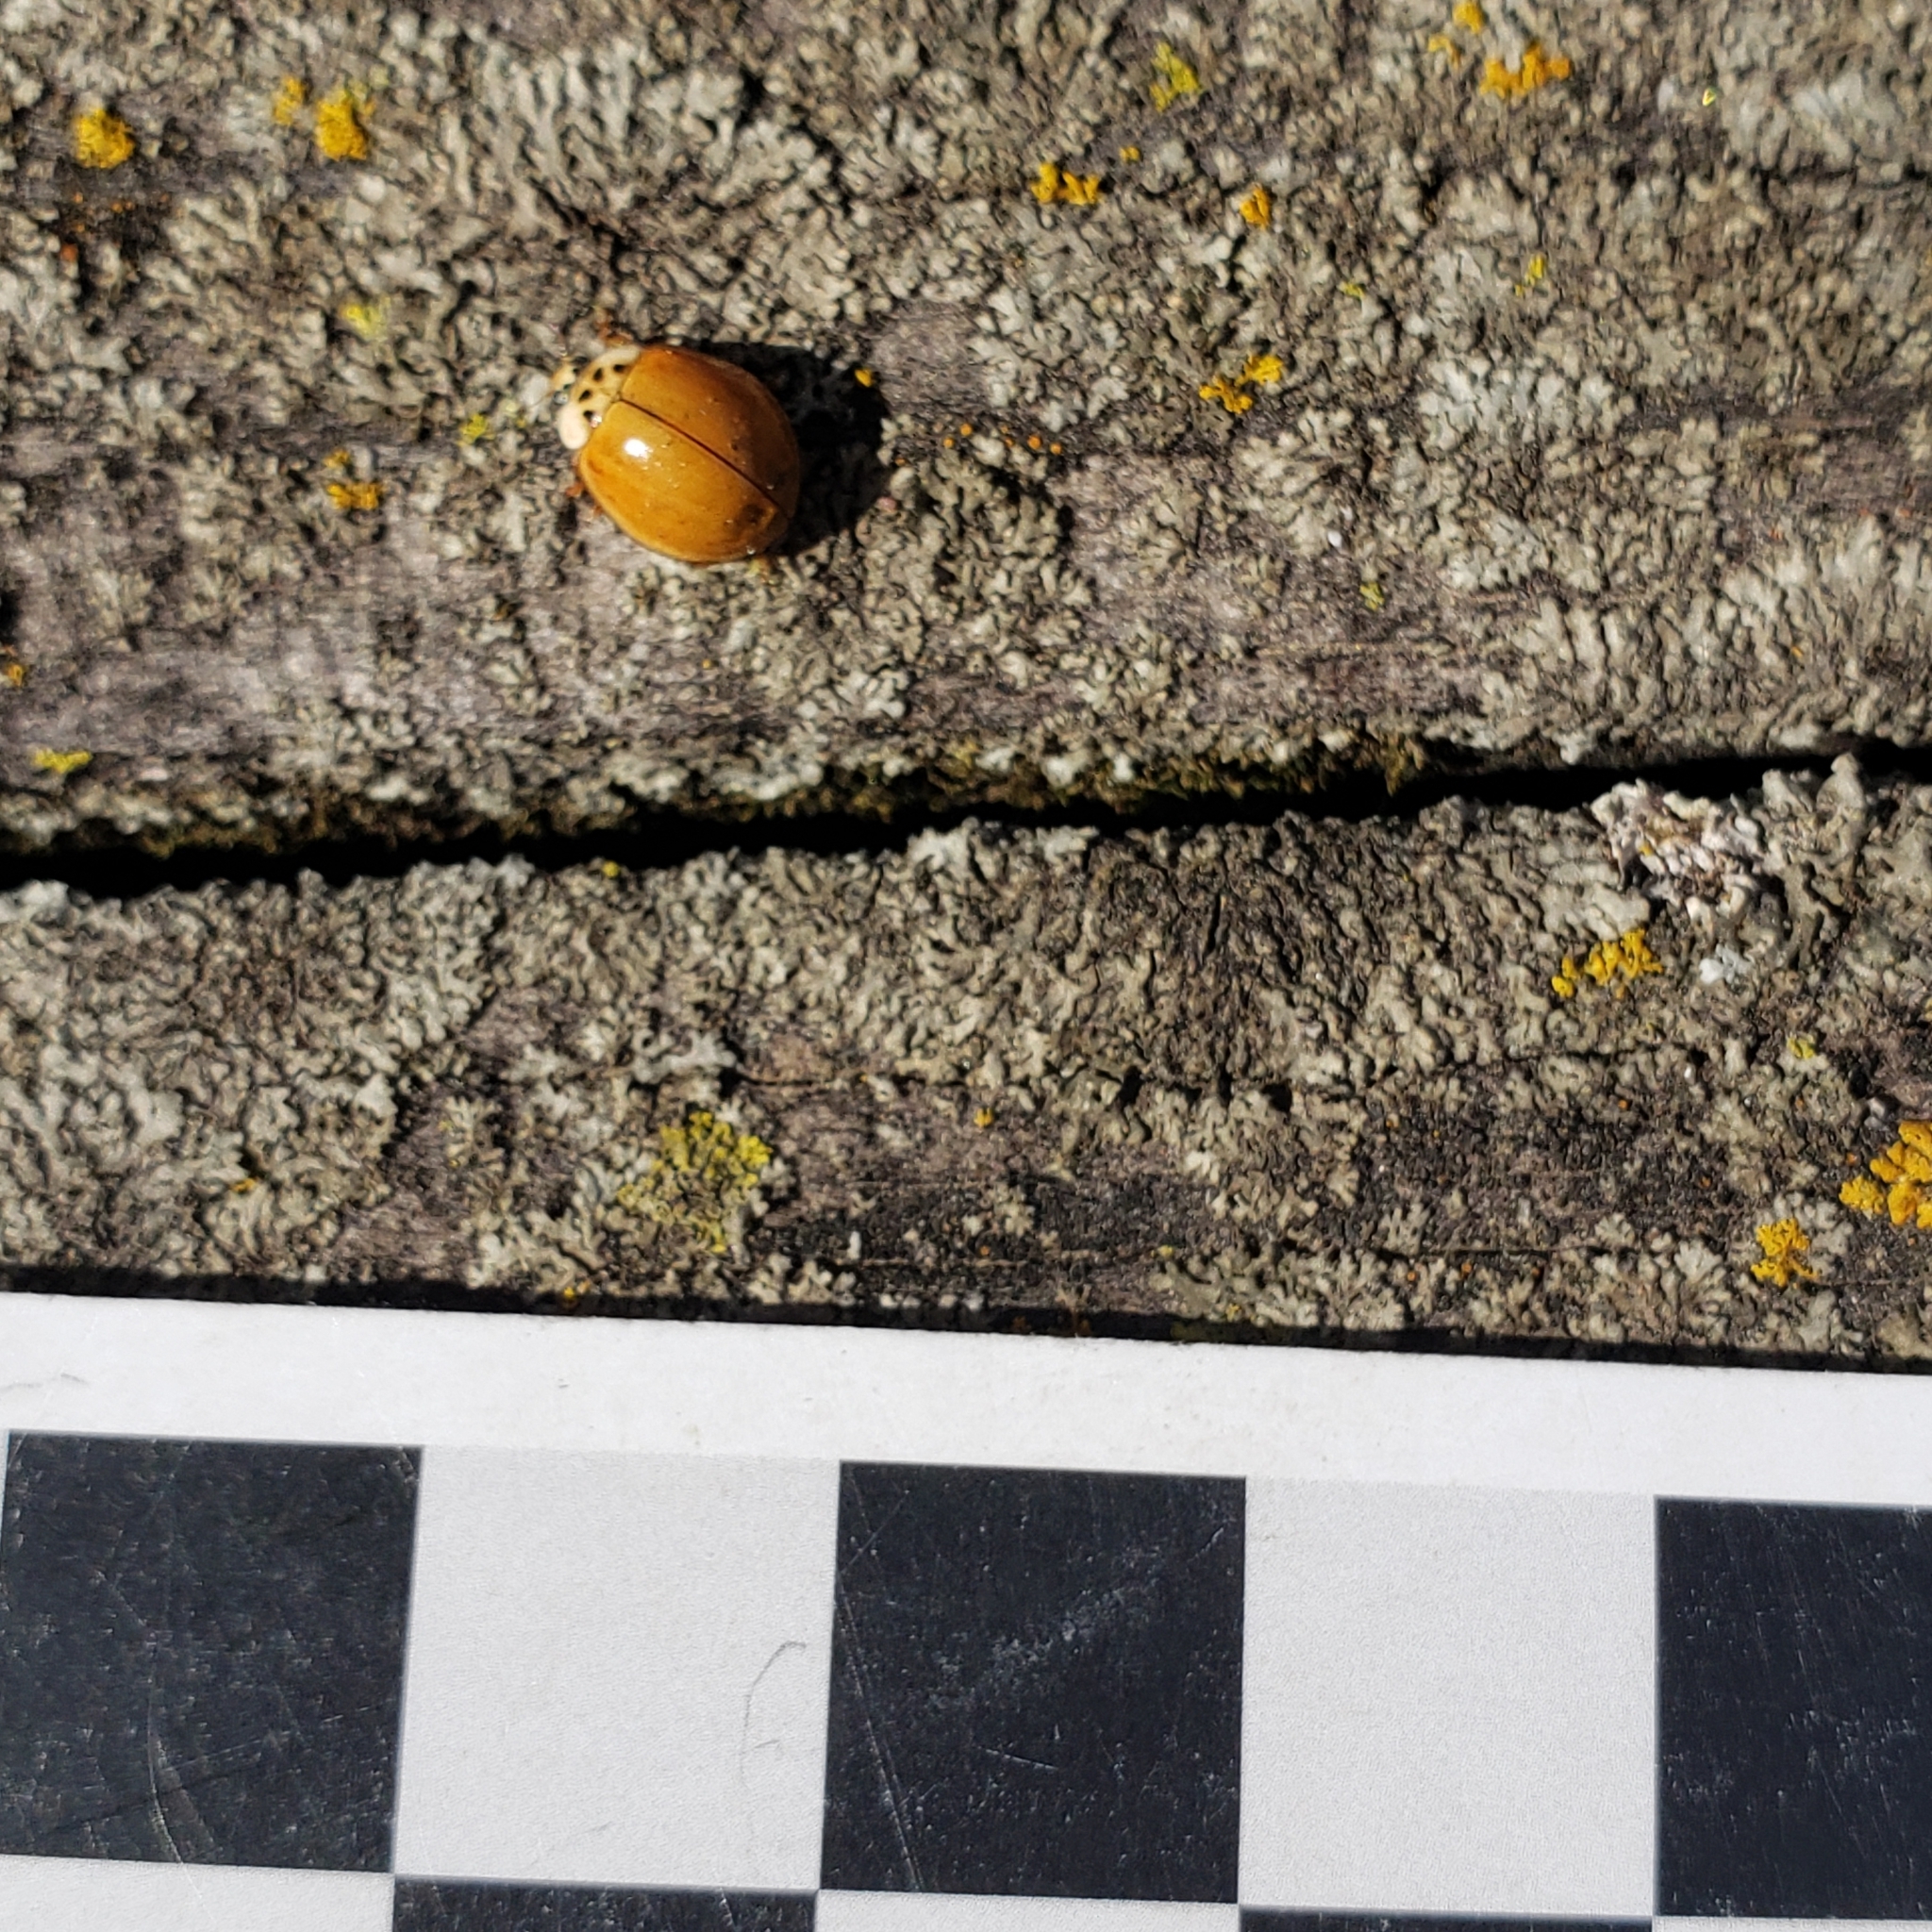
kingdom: Animalia
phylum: Arthropoda
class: Insecta
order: Coleoptera
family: Coccinellidae
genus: Harmonia
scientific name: Harmonia axyridis
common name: Harlequin ladybird
